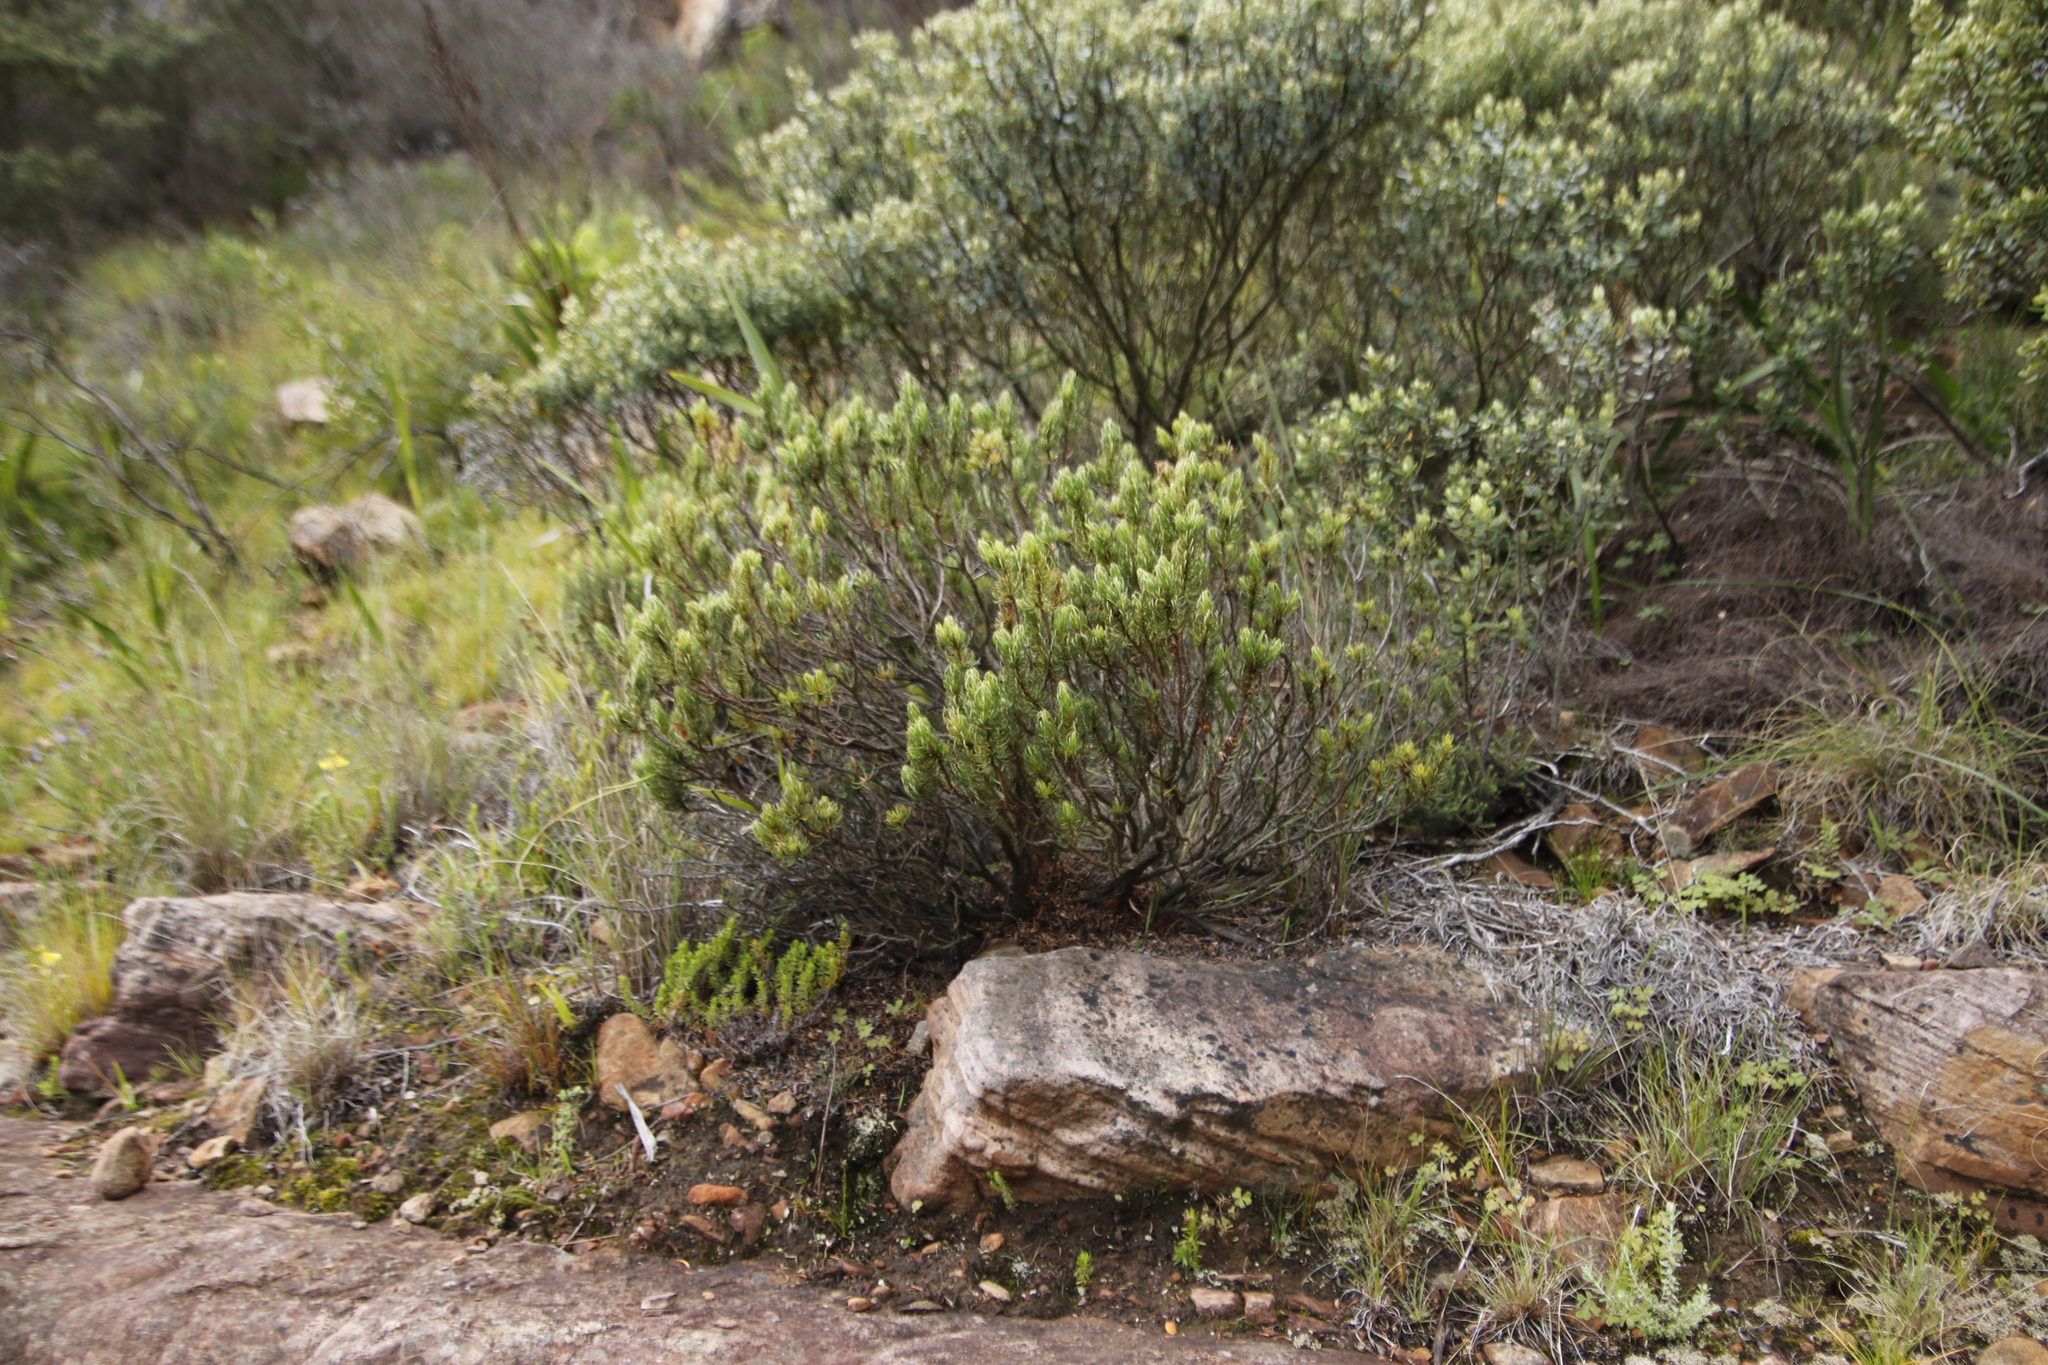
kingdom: Plantae
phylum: Tracheophyta
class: Magnoliopsida
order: Ericales
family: Ericaceae
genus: Erica
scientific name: Erica plukenetii
